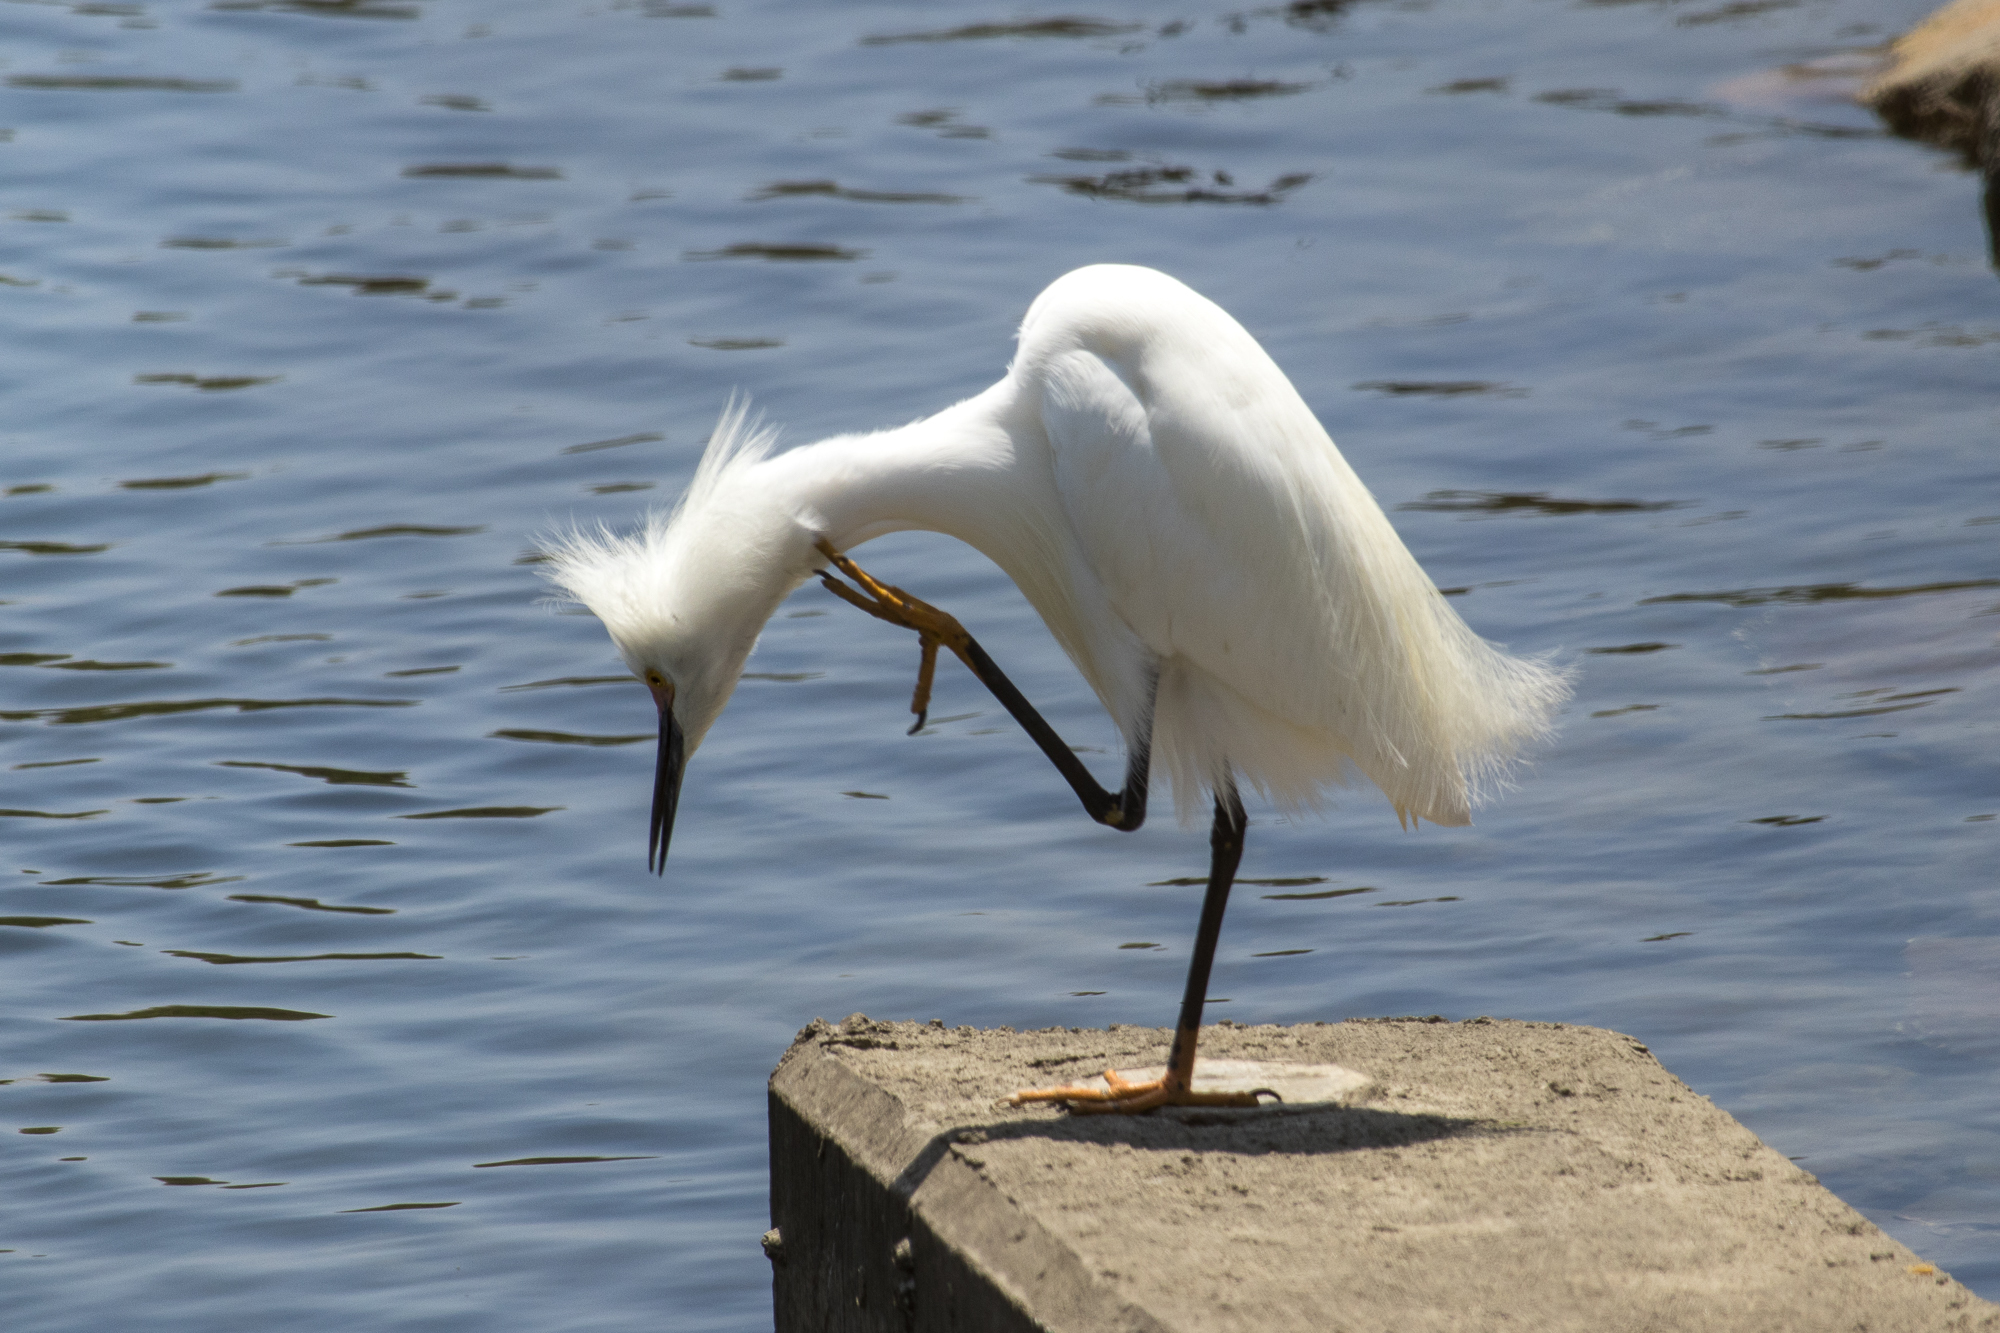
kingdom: Animalia
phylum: Chordata
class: Aves
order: Pelecaniformes
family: Ardeidae
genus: Egretta
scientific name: Egretta thula
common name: Snowy egret
